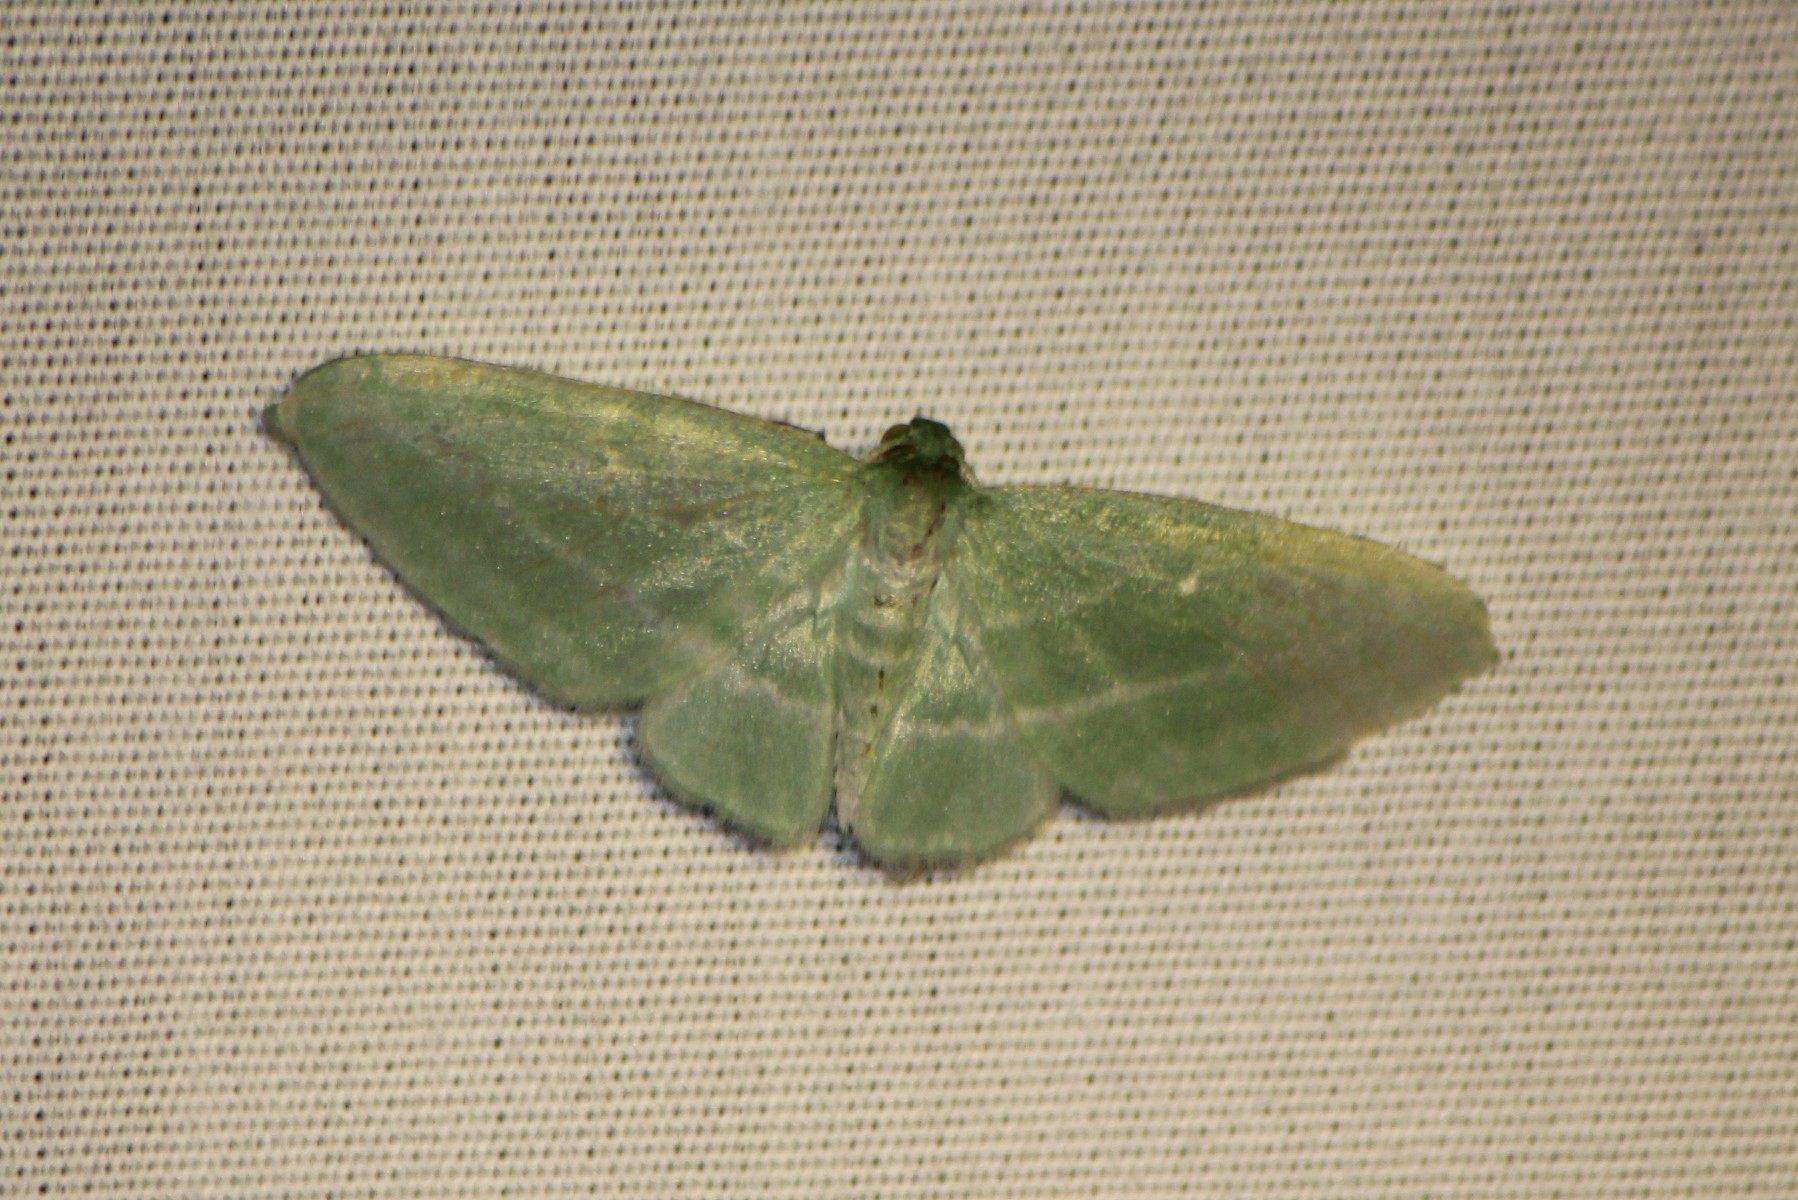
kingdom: Animalia
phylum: Arthropoda
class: Insecta
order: Lepidoptera
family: Geometridae
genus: Dyspteris
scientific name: Dyspteris abortivaria
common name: Bad-wing
